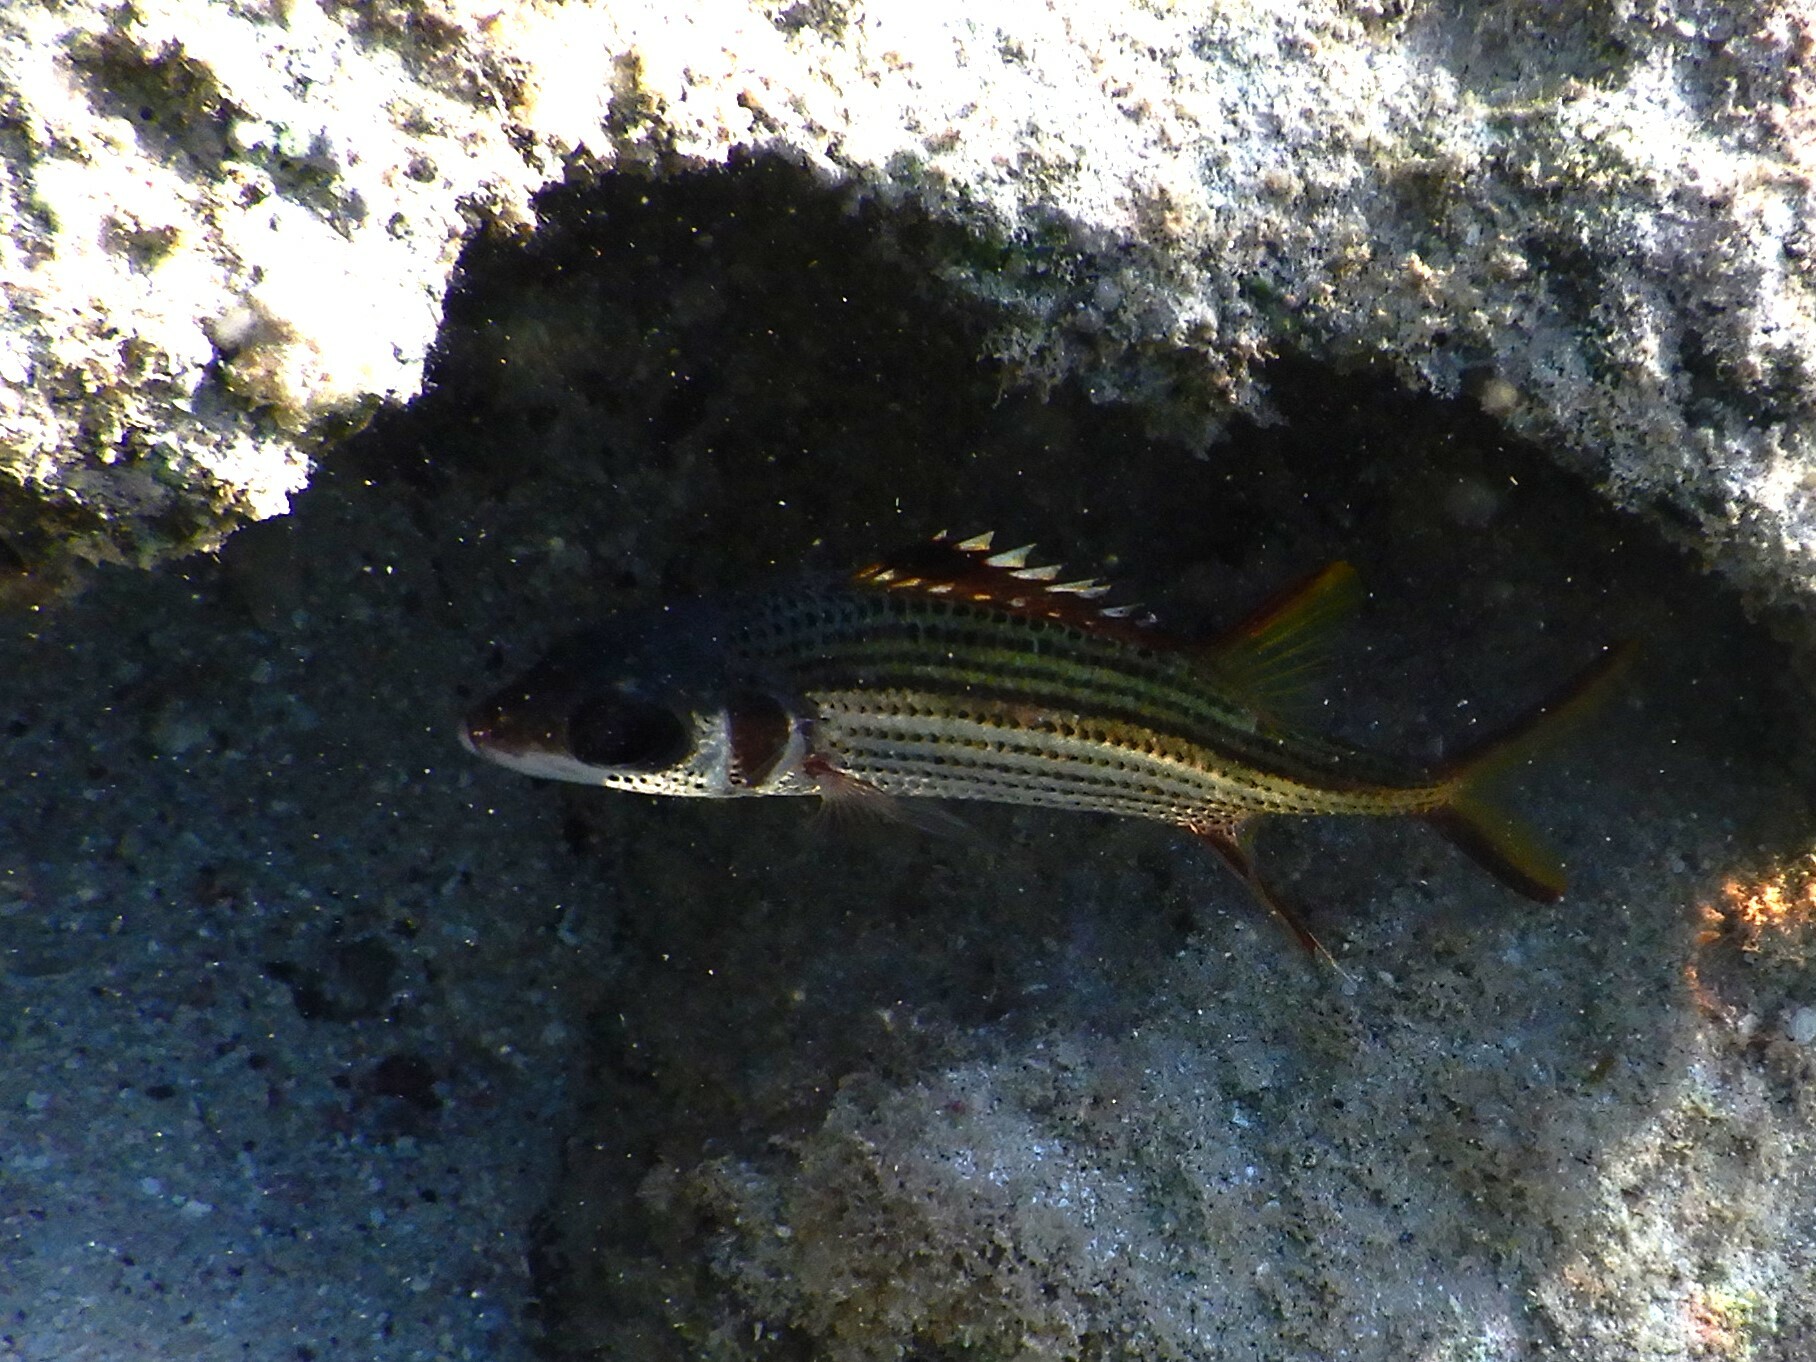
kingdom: Animalia
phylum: Chordata
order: Beryciformes
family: Holocentridae
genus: Neoniphon
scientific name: Neoniphon sammara
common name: Sammara squirrelfish
